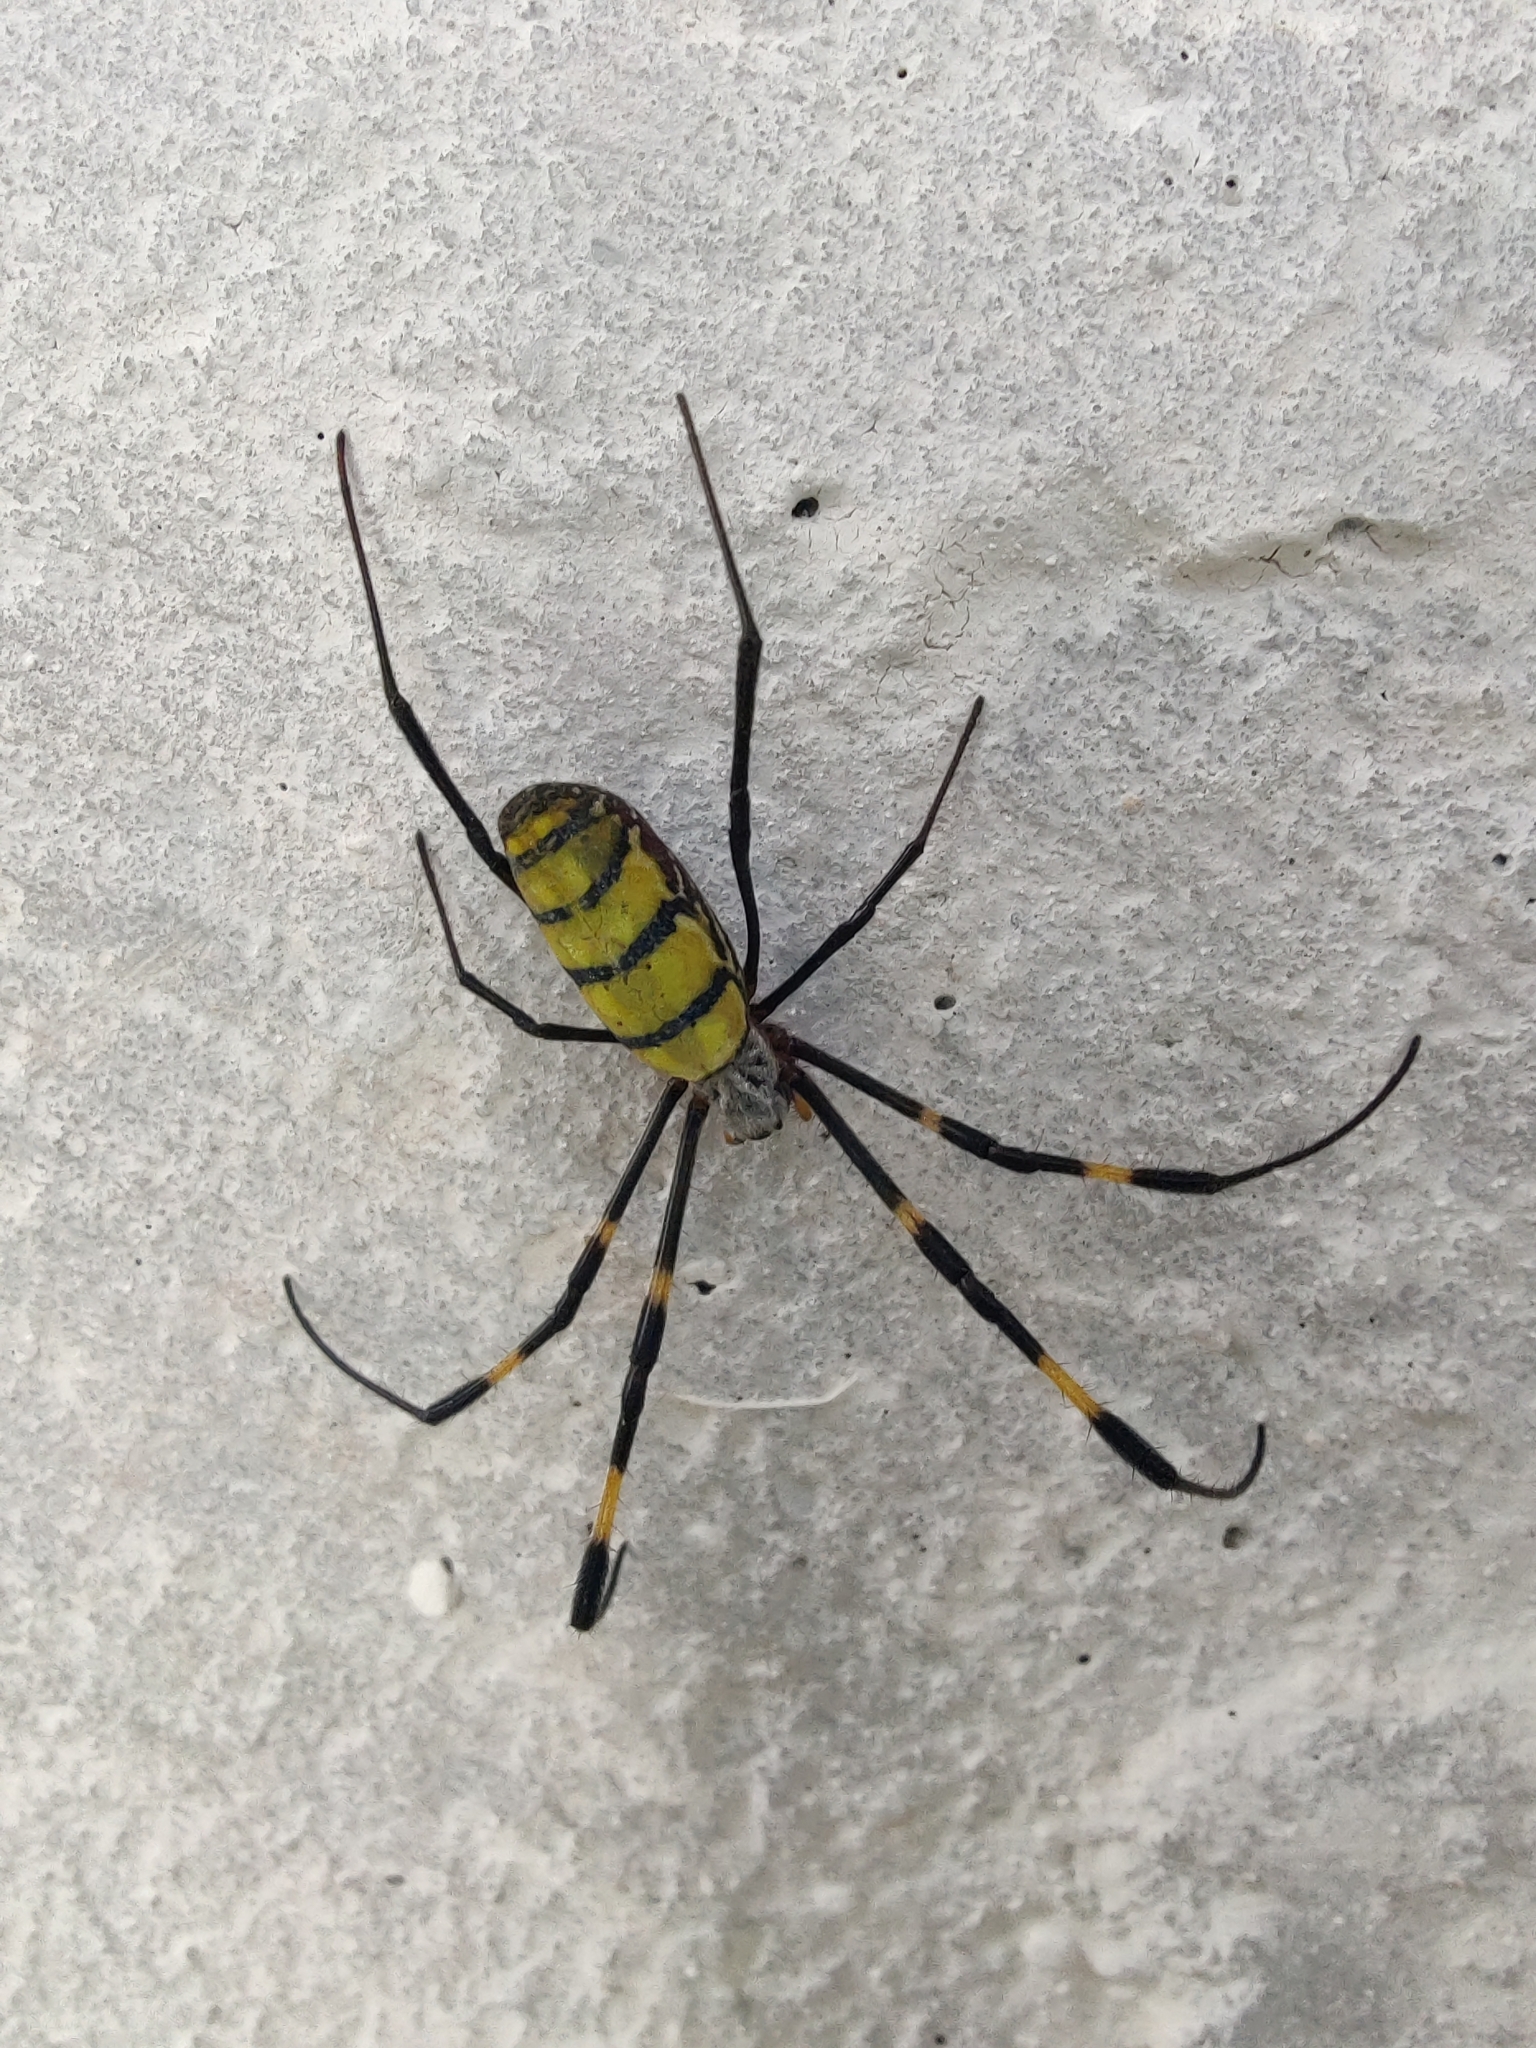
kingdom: Animalia
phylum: Arthropoda
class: Arachnida
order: Araneae
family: Araneidae
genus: Trichonephila
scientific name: Trichonephila clavata
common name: Jorō spider
